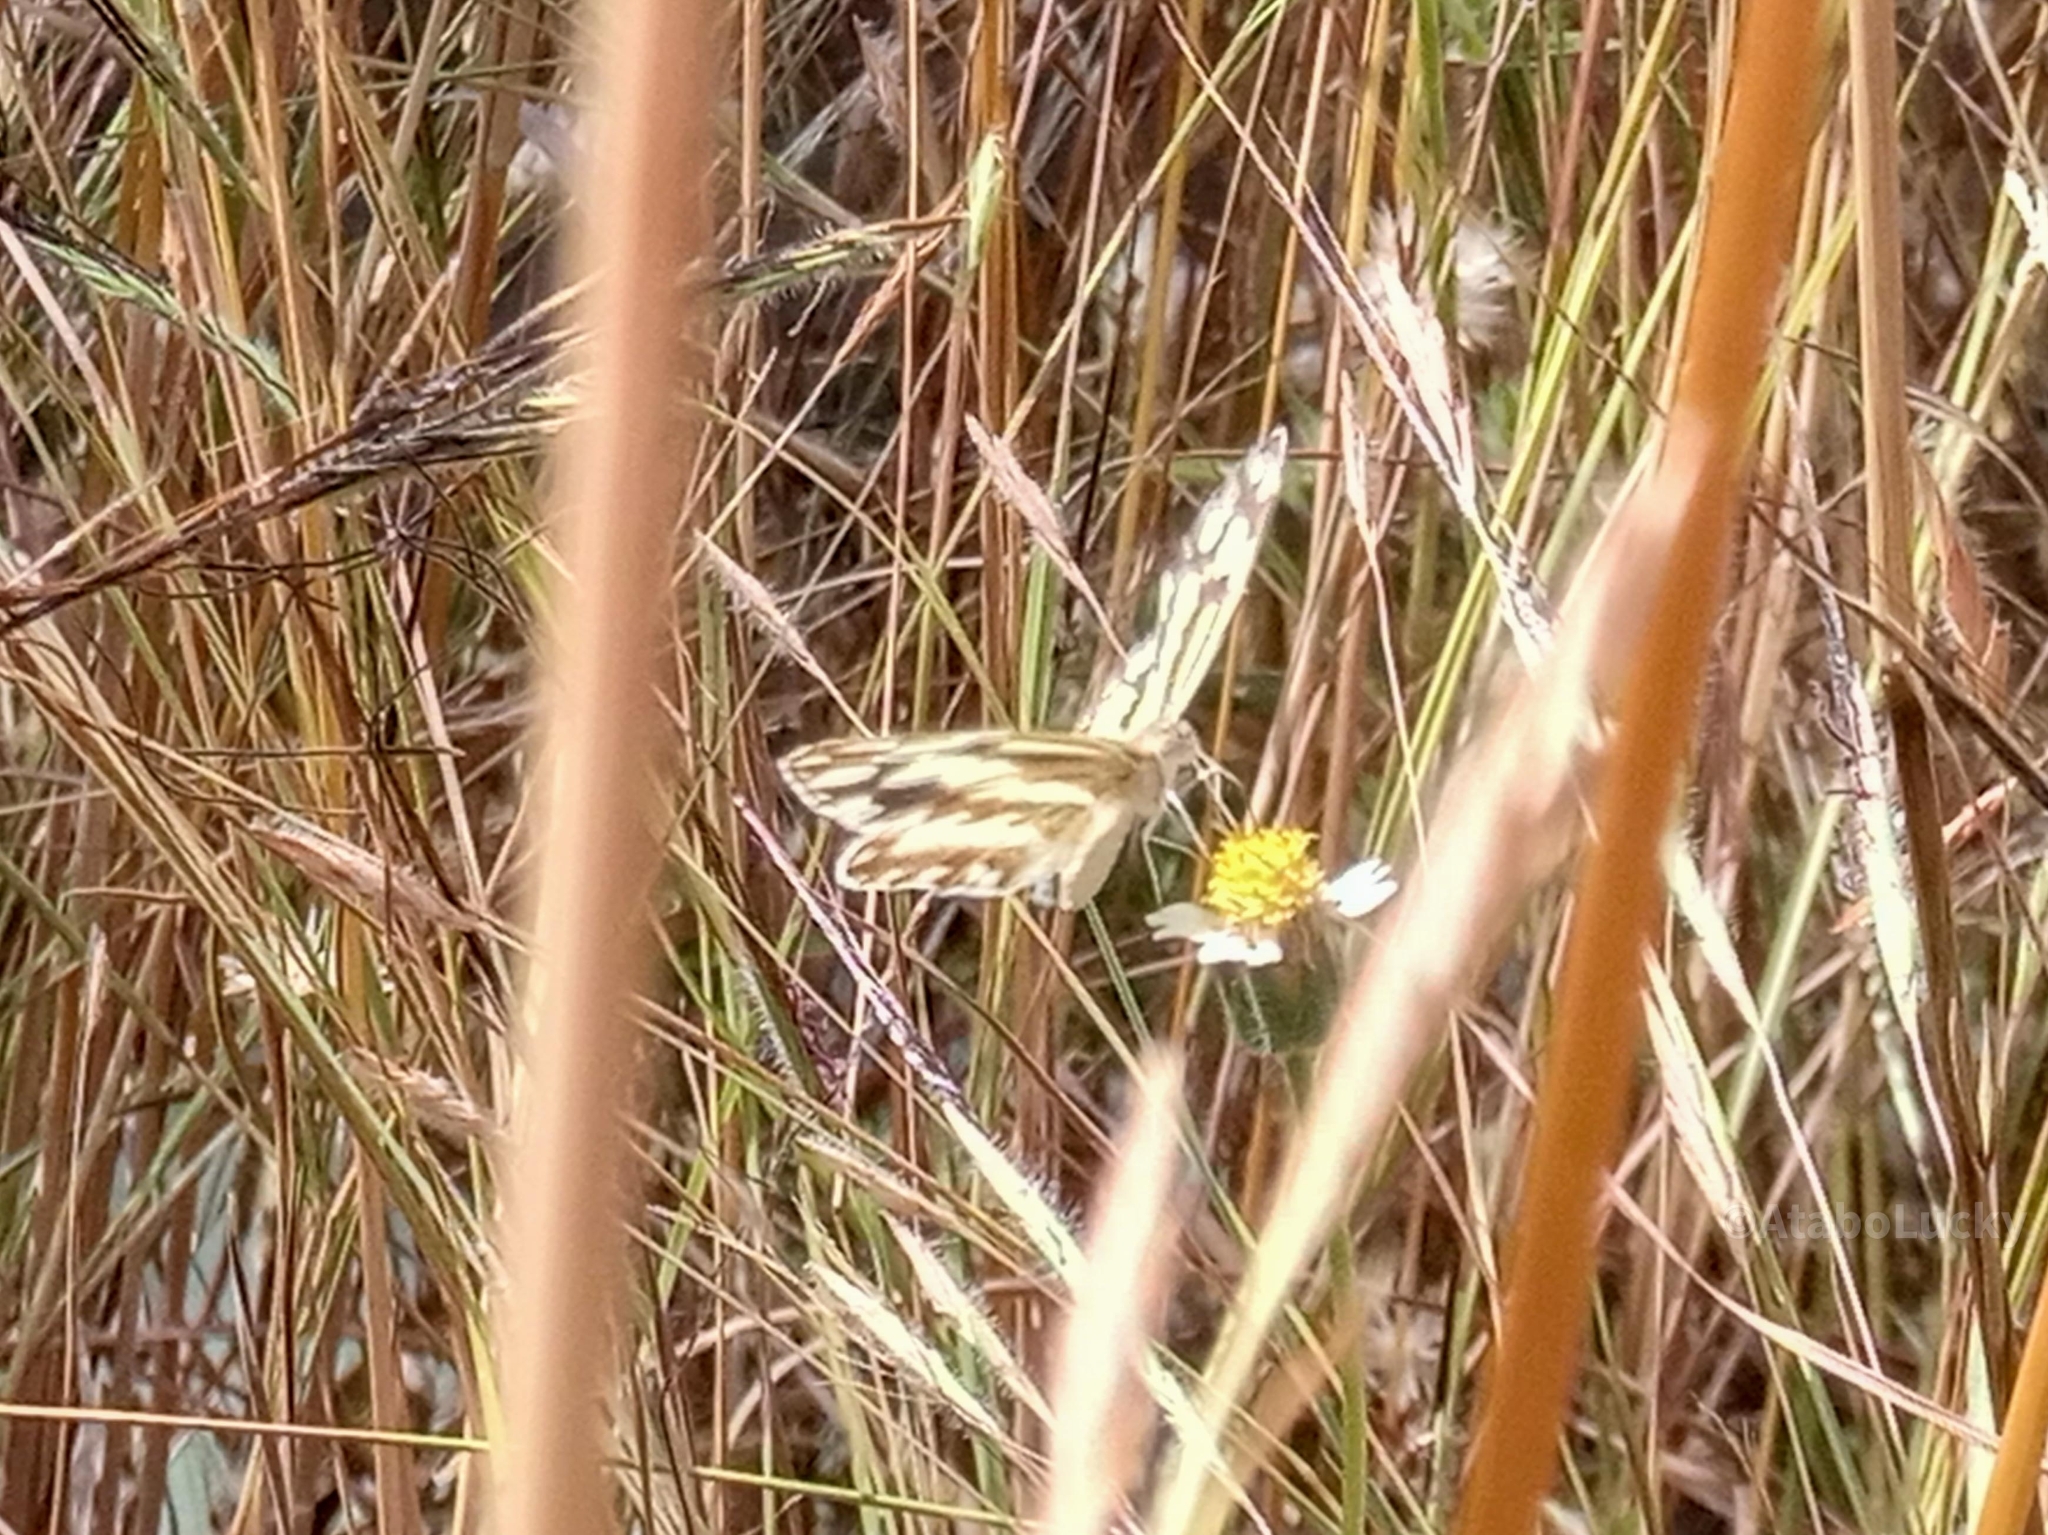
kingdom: Animalia
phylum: Arthropoda
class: Insecta
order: Lepidoptera
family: Pieridae
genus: Pinacopteryx
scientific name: Pinacopteryx eriphia
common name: Zebra white
